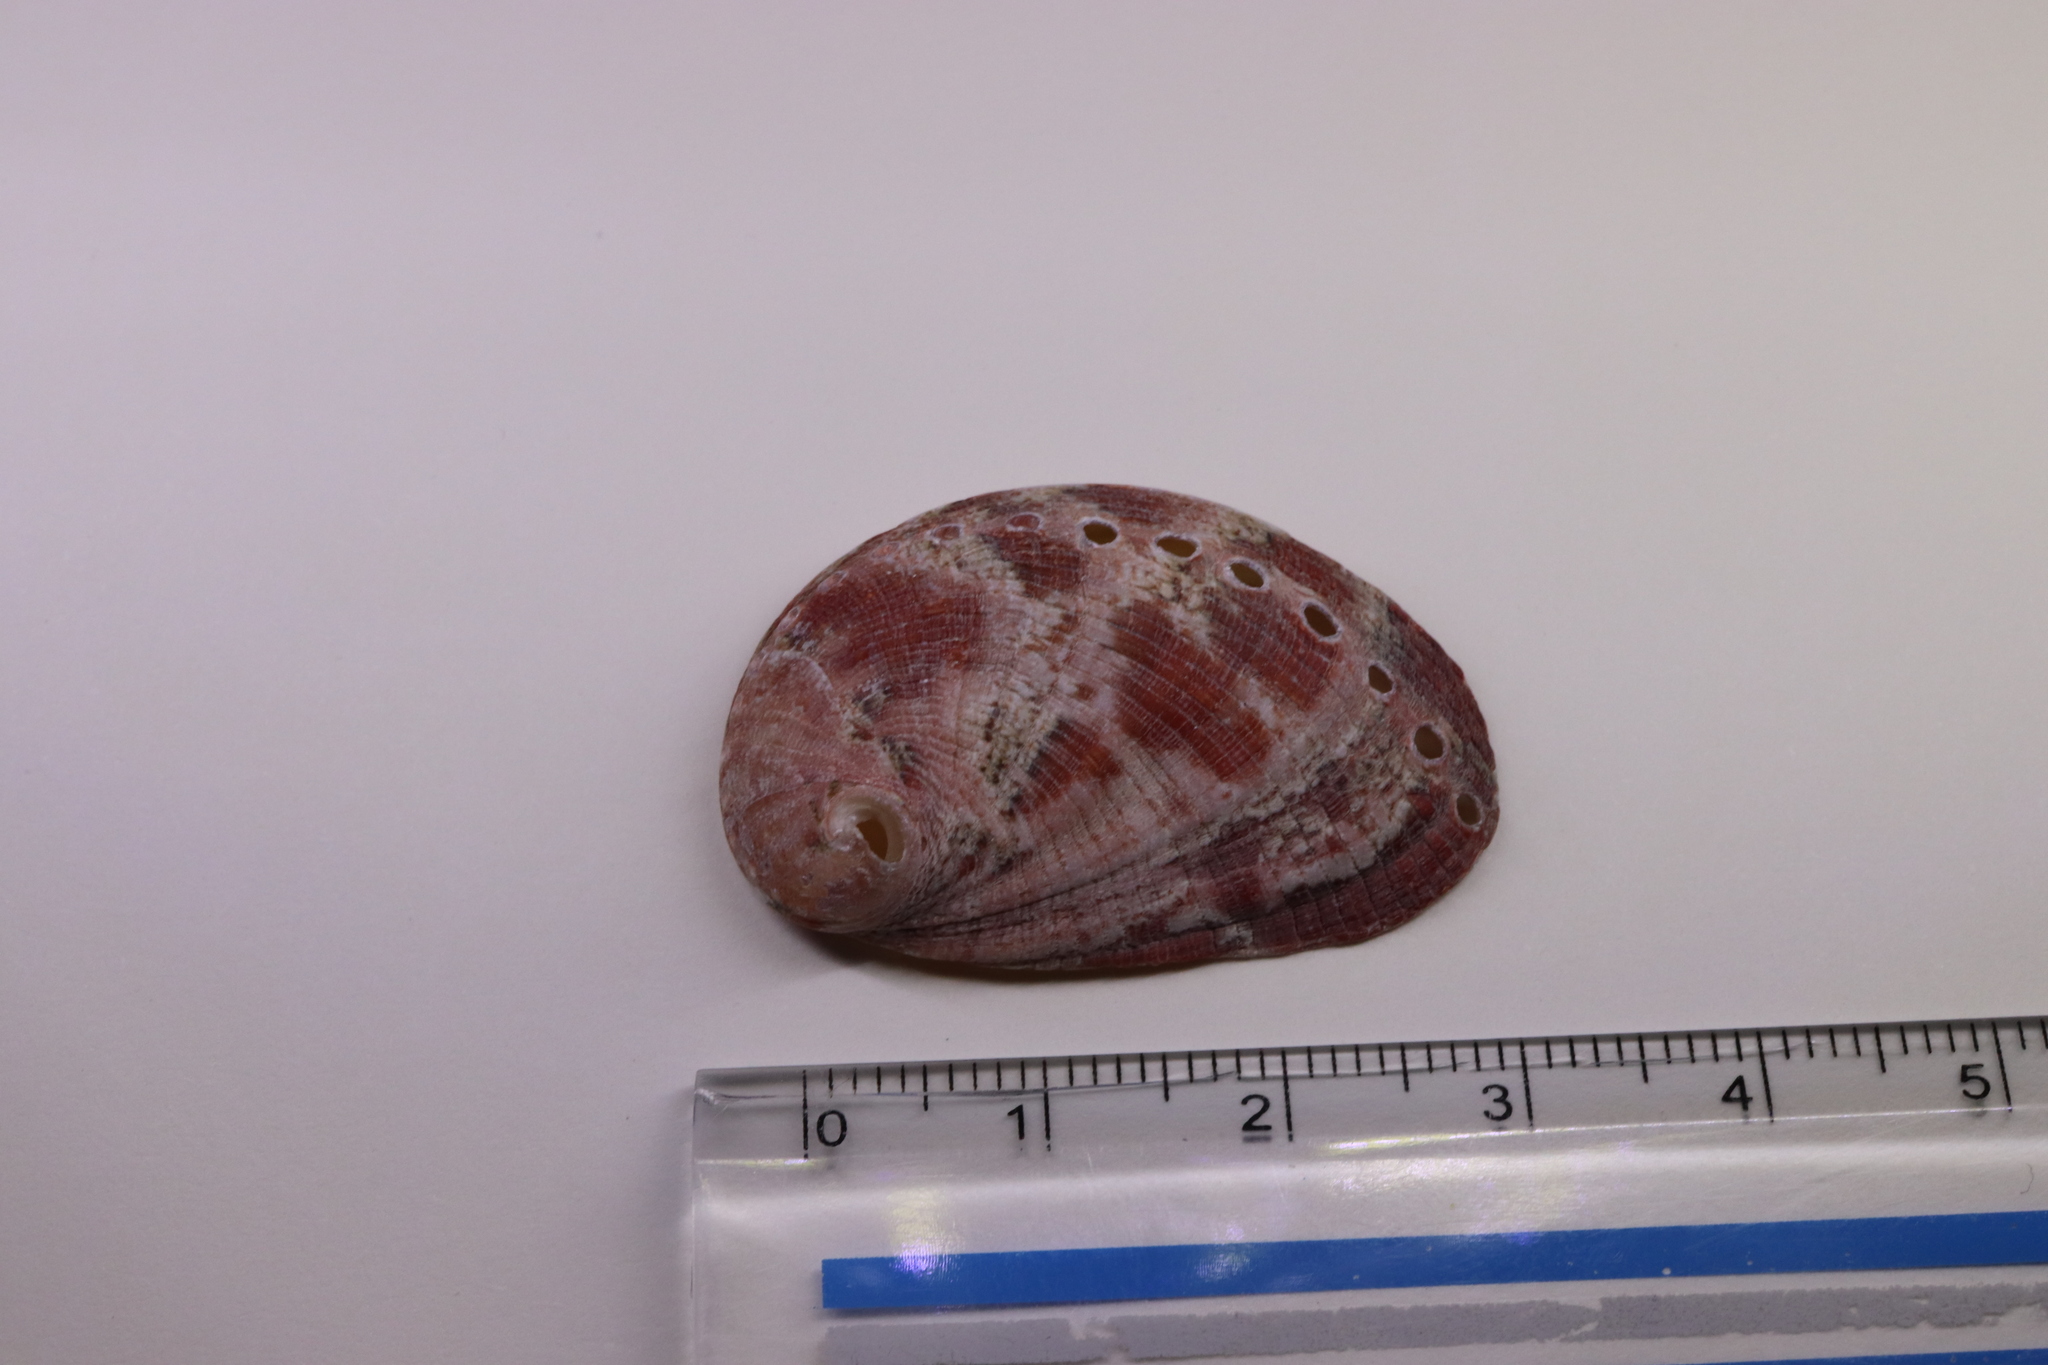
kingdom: Animalia
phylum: Mollusca
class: Gastropoda
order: Lepetellida
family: Haliotidae
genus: Haliotis
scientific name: Haliotis diversicolor
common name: Multicolored abalone
